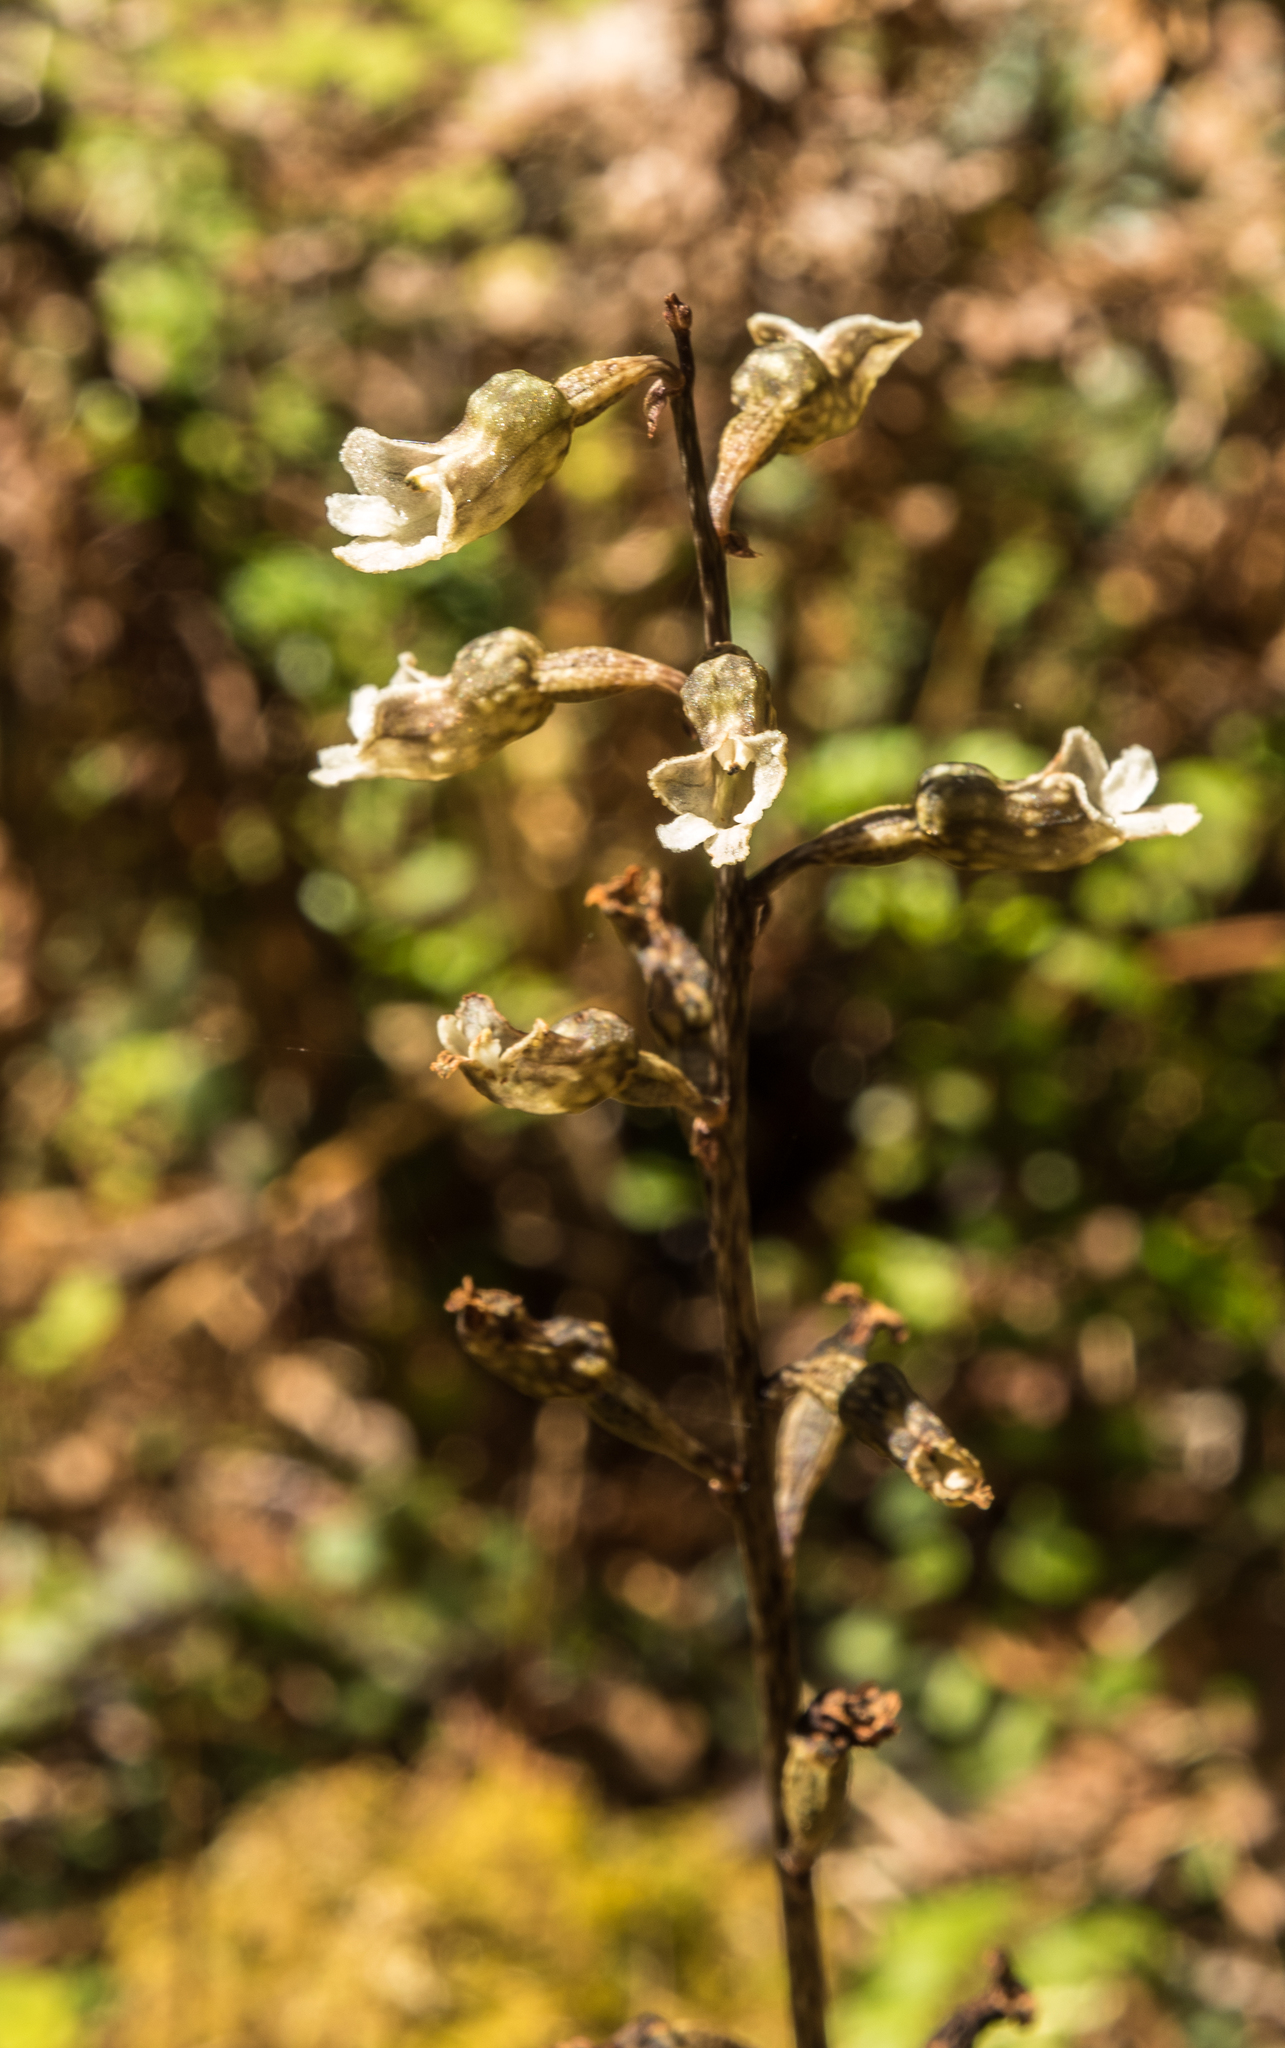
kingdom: Plantae
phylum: Tracheophyta
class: Liliopsida
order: Asparagales
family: Orchidaceae
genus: Gastrodia
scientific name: Gastrodia cunninghamii
